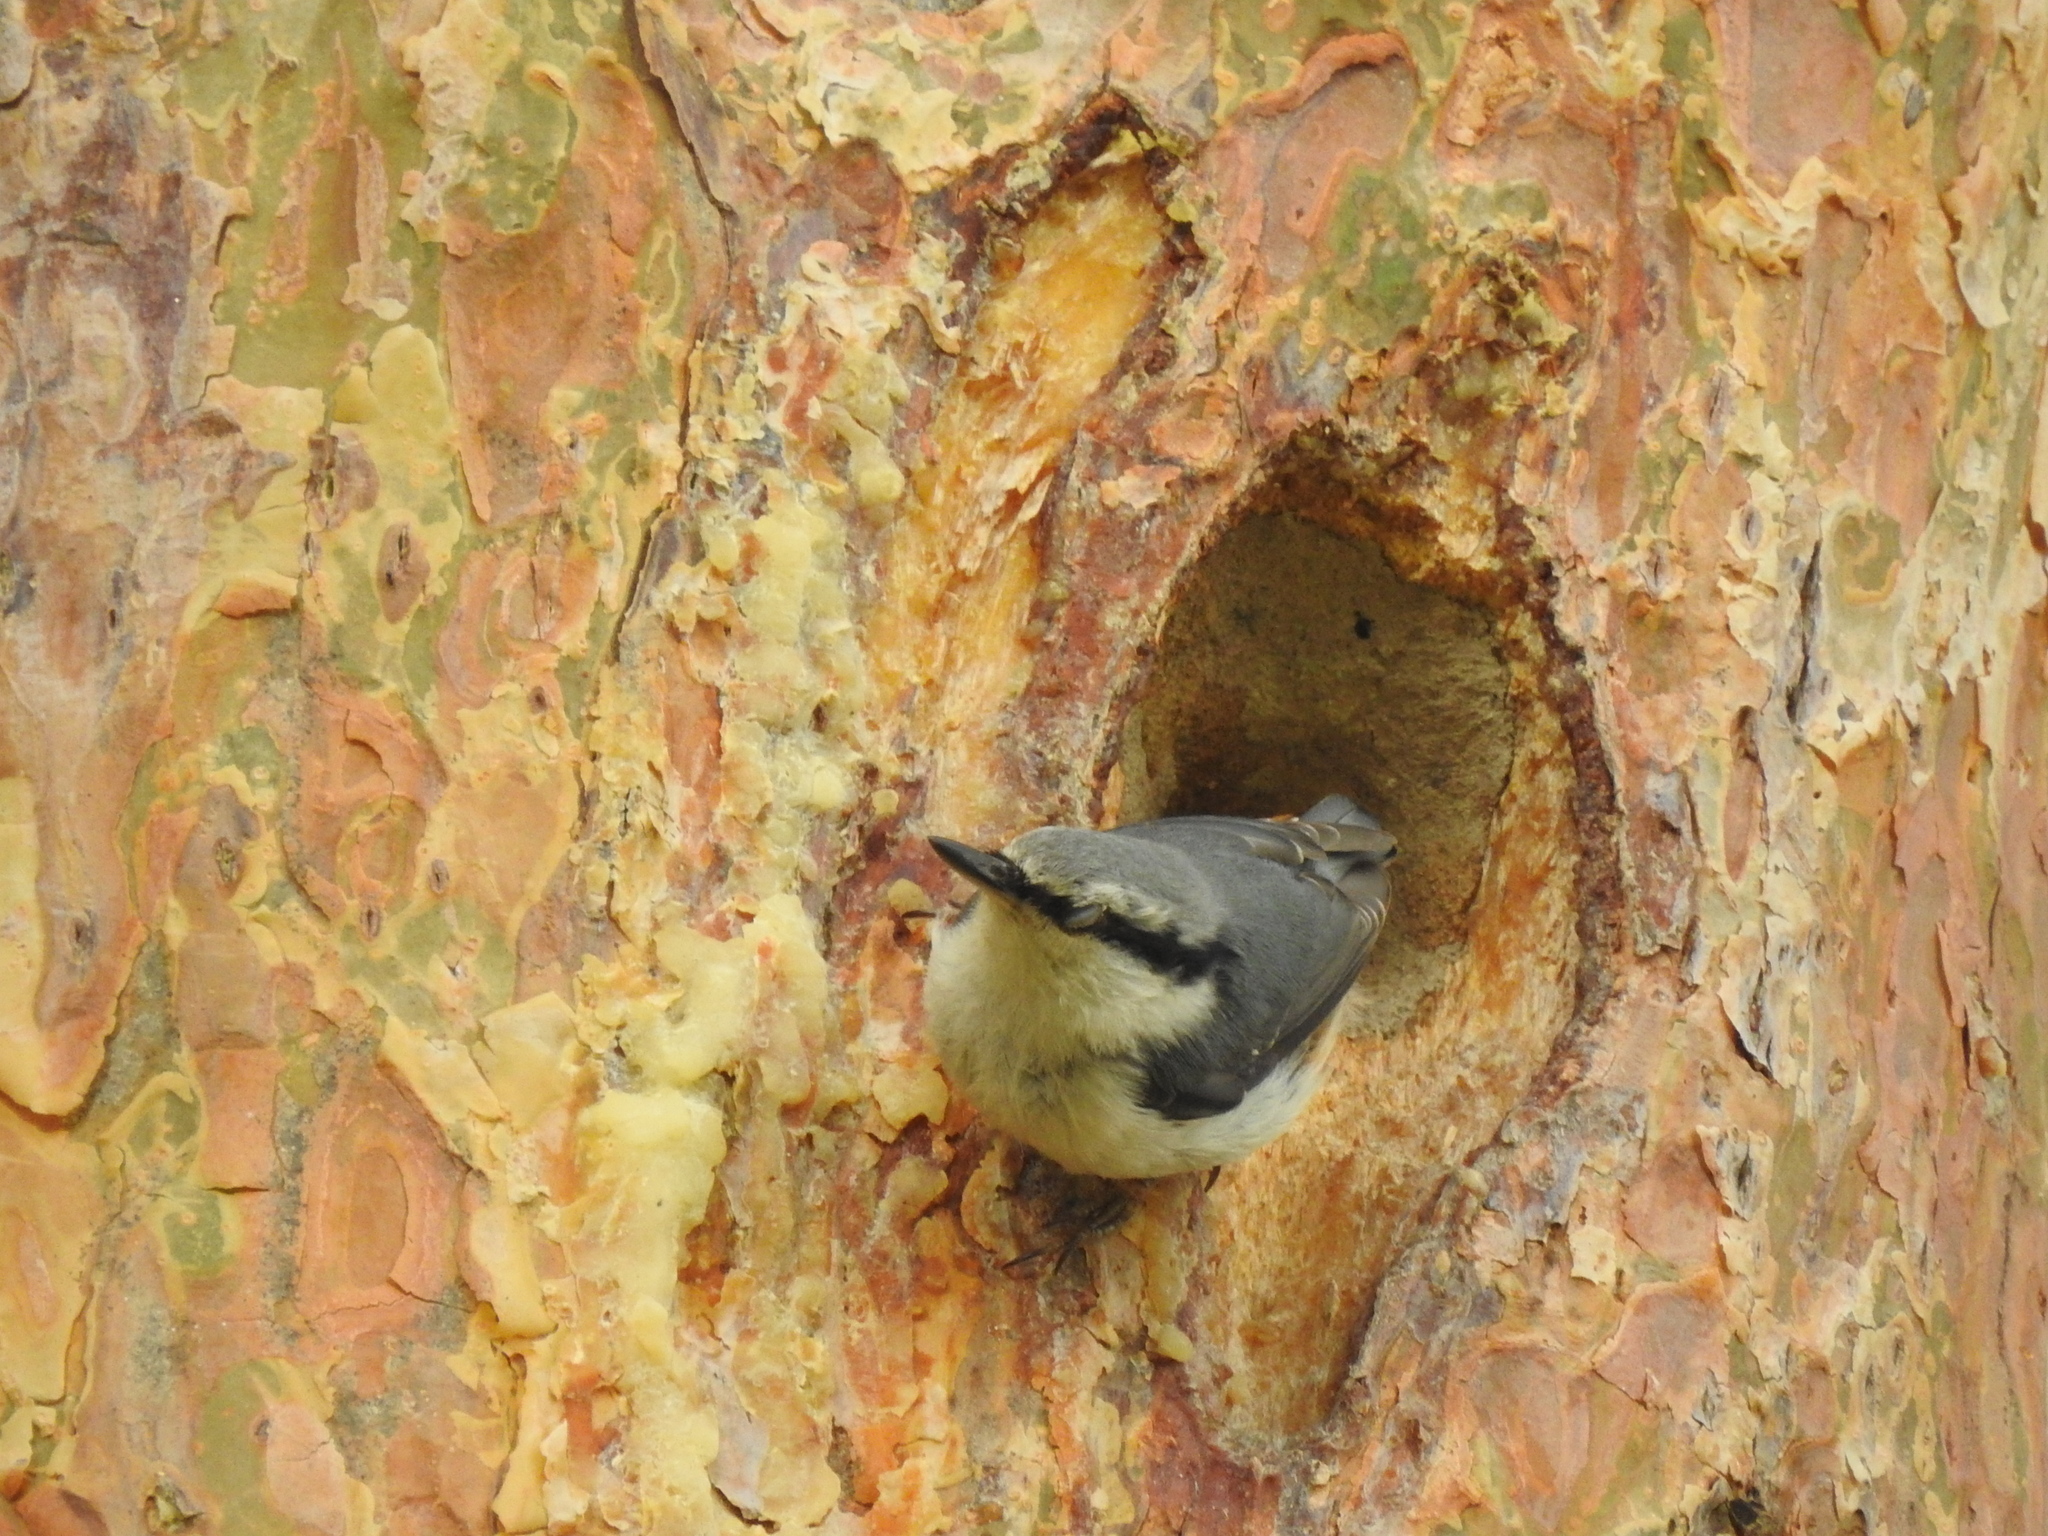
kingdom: Animalia
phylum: Chordata
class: Aves
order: Passeriformes
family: Sittidae
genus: Sitta
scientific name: Sitta europaea
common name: Eurasian nuthatch
